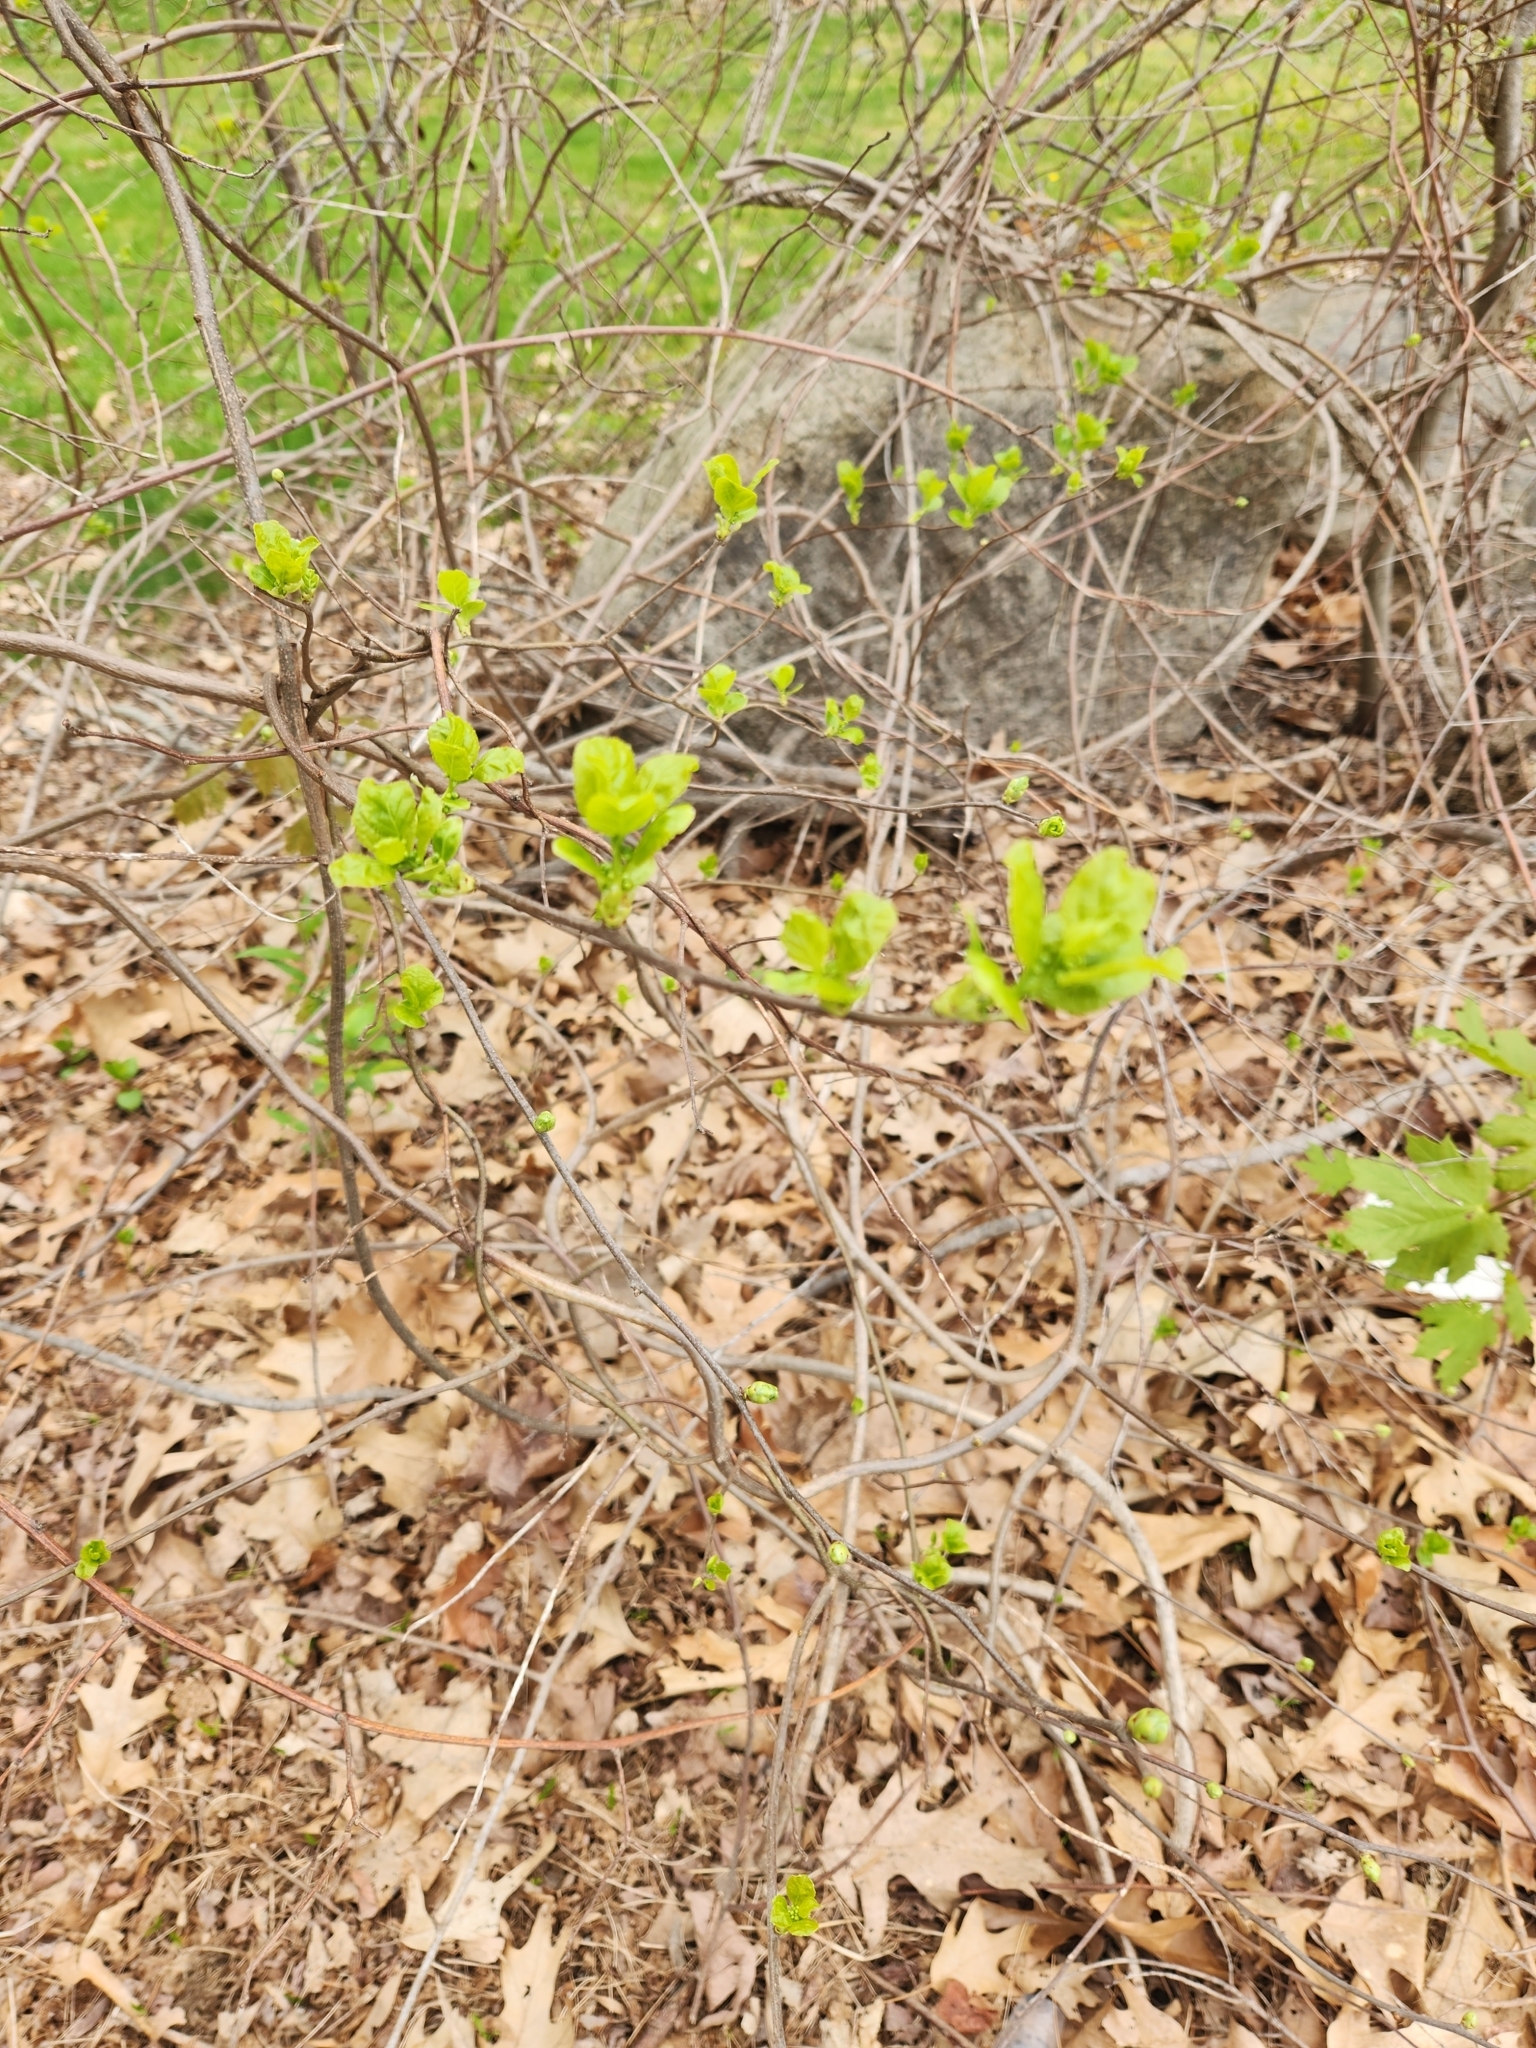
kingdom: Plantae
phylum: Tracheophyta
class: Magnoliopsida
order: Celastrales
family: Celastraceae
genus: Celastrus
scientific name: Celastrus orbiculatus
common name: Oriental bittersweet
